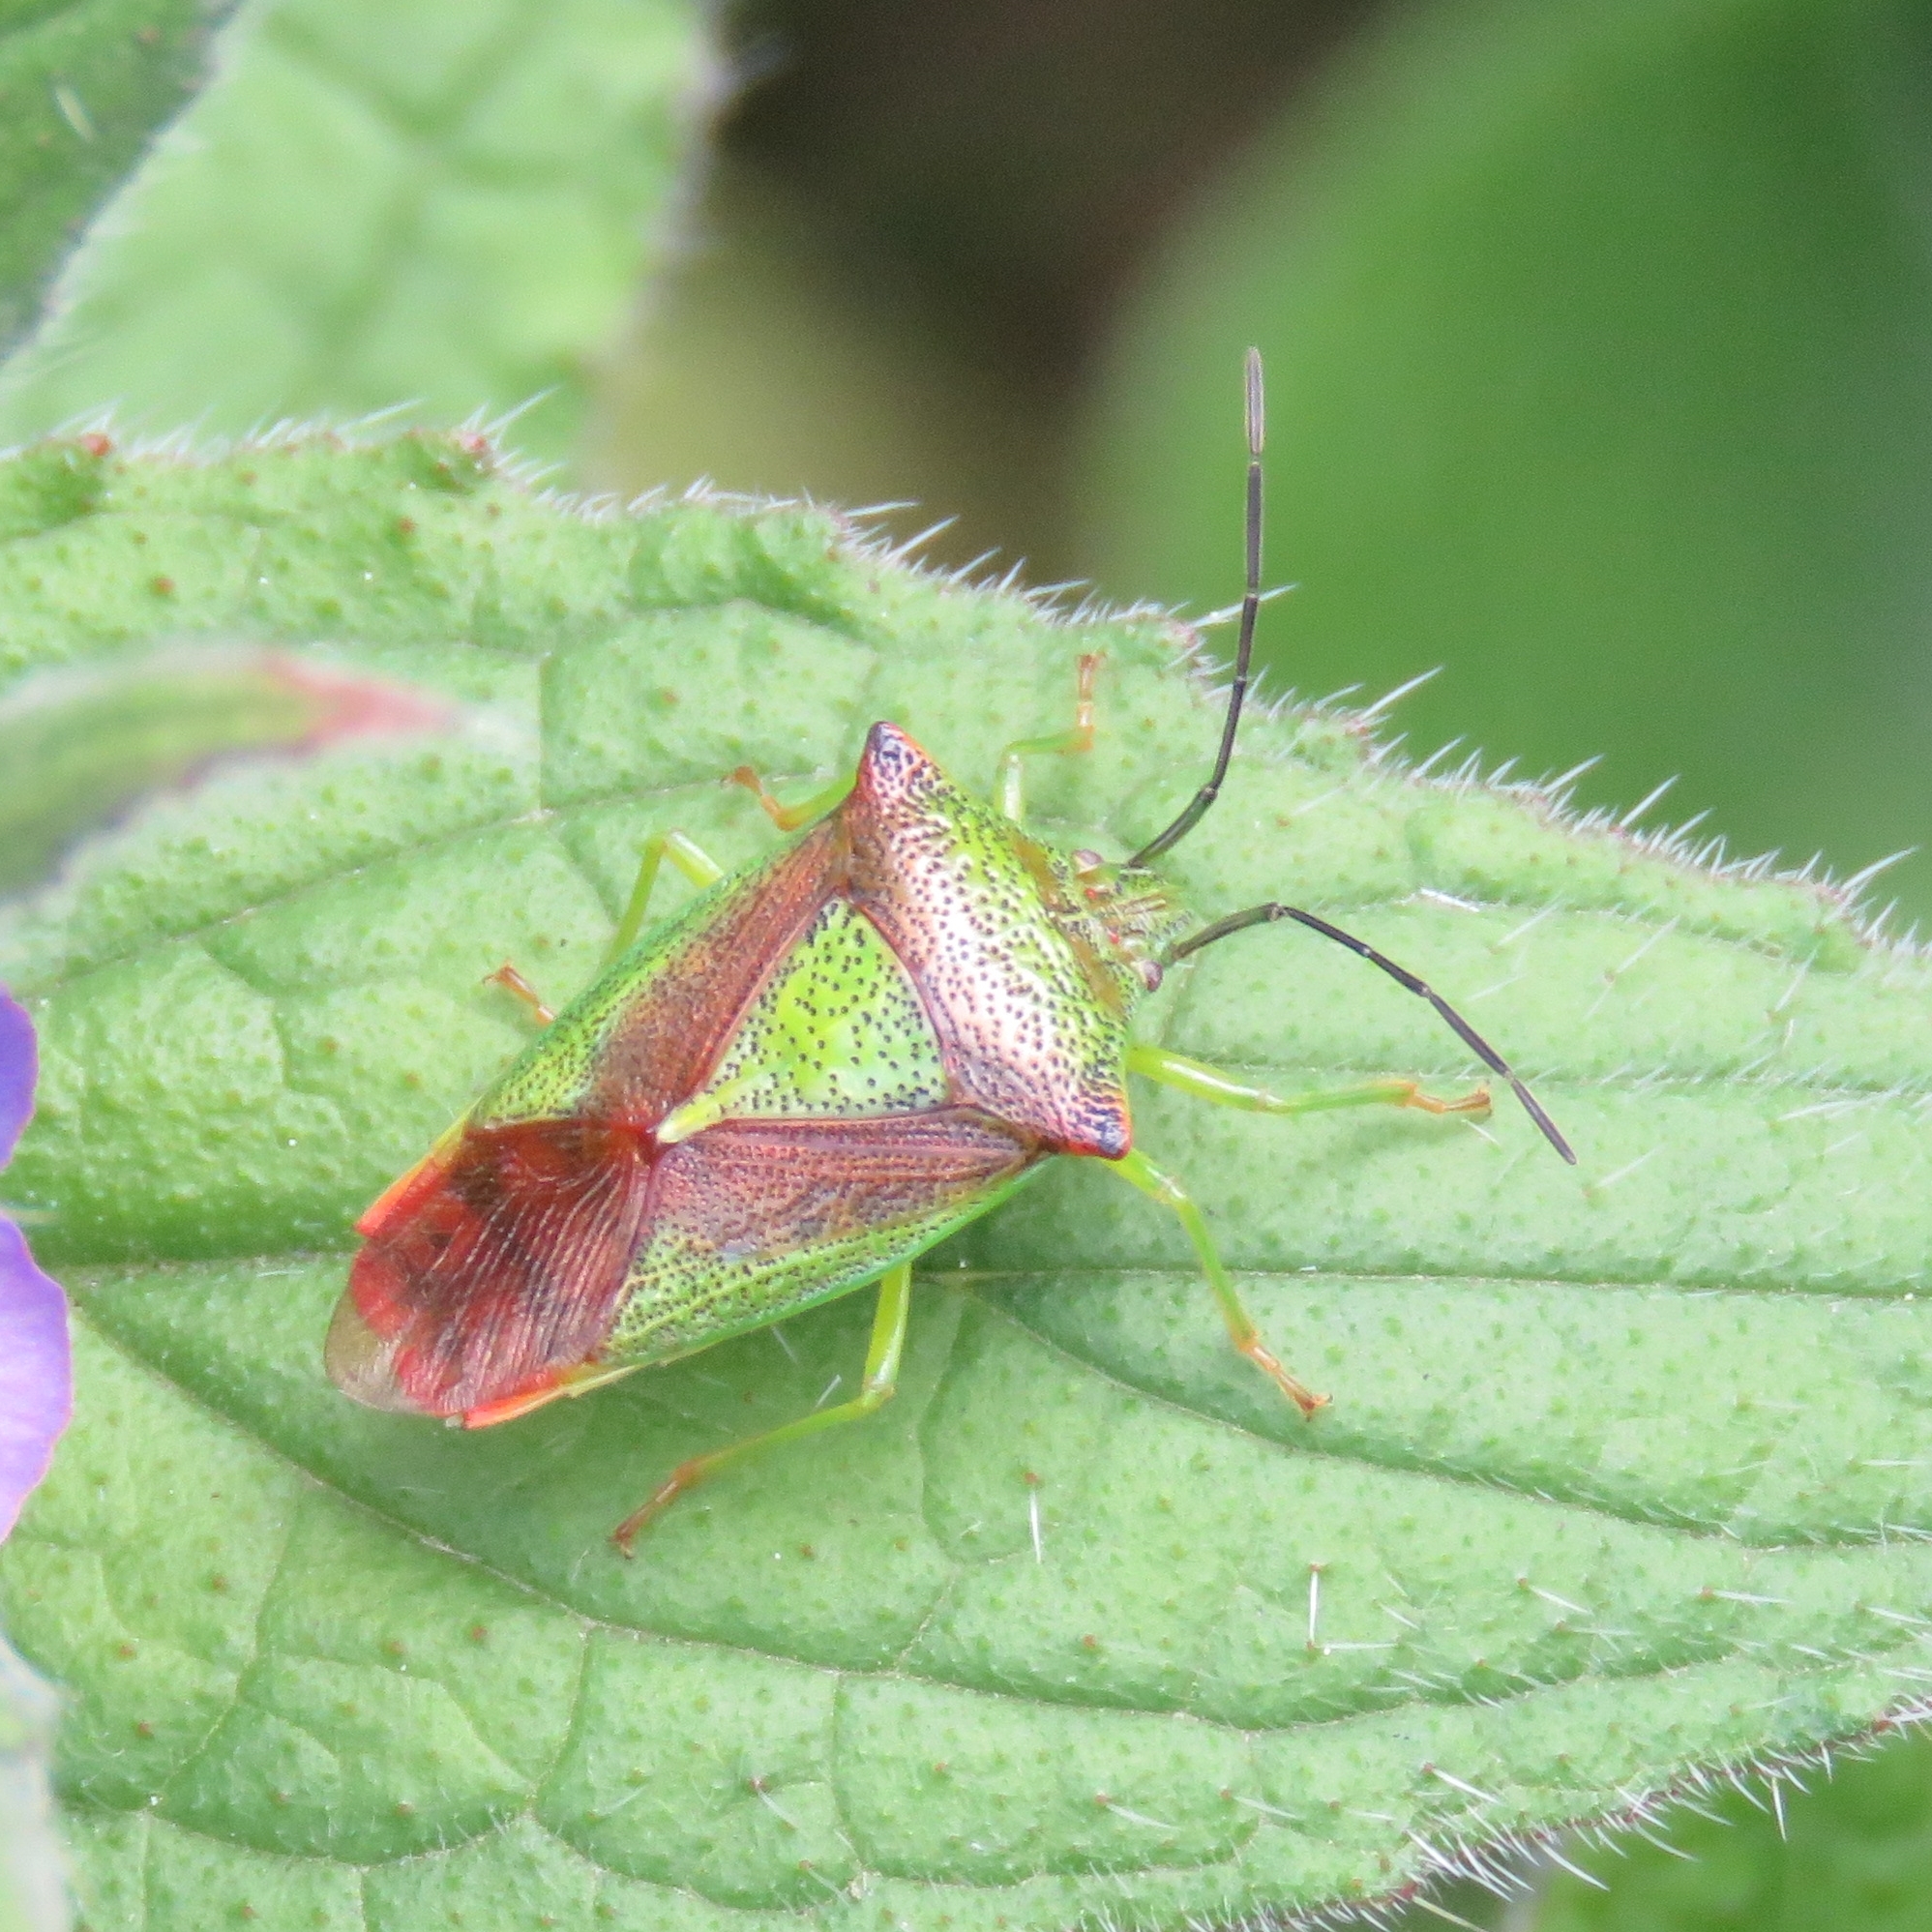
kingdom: Animalia
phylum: Arthropoda
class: Insecta
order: Hemiptera
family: Acanthosomatidae
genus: Acanthosoma
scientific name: Acanthosoma haemorrhoidale
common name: Hawthorn shieldbug
